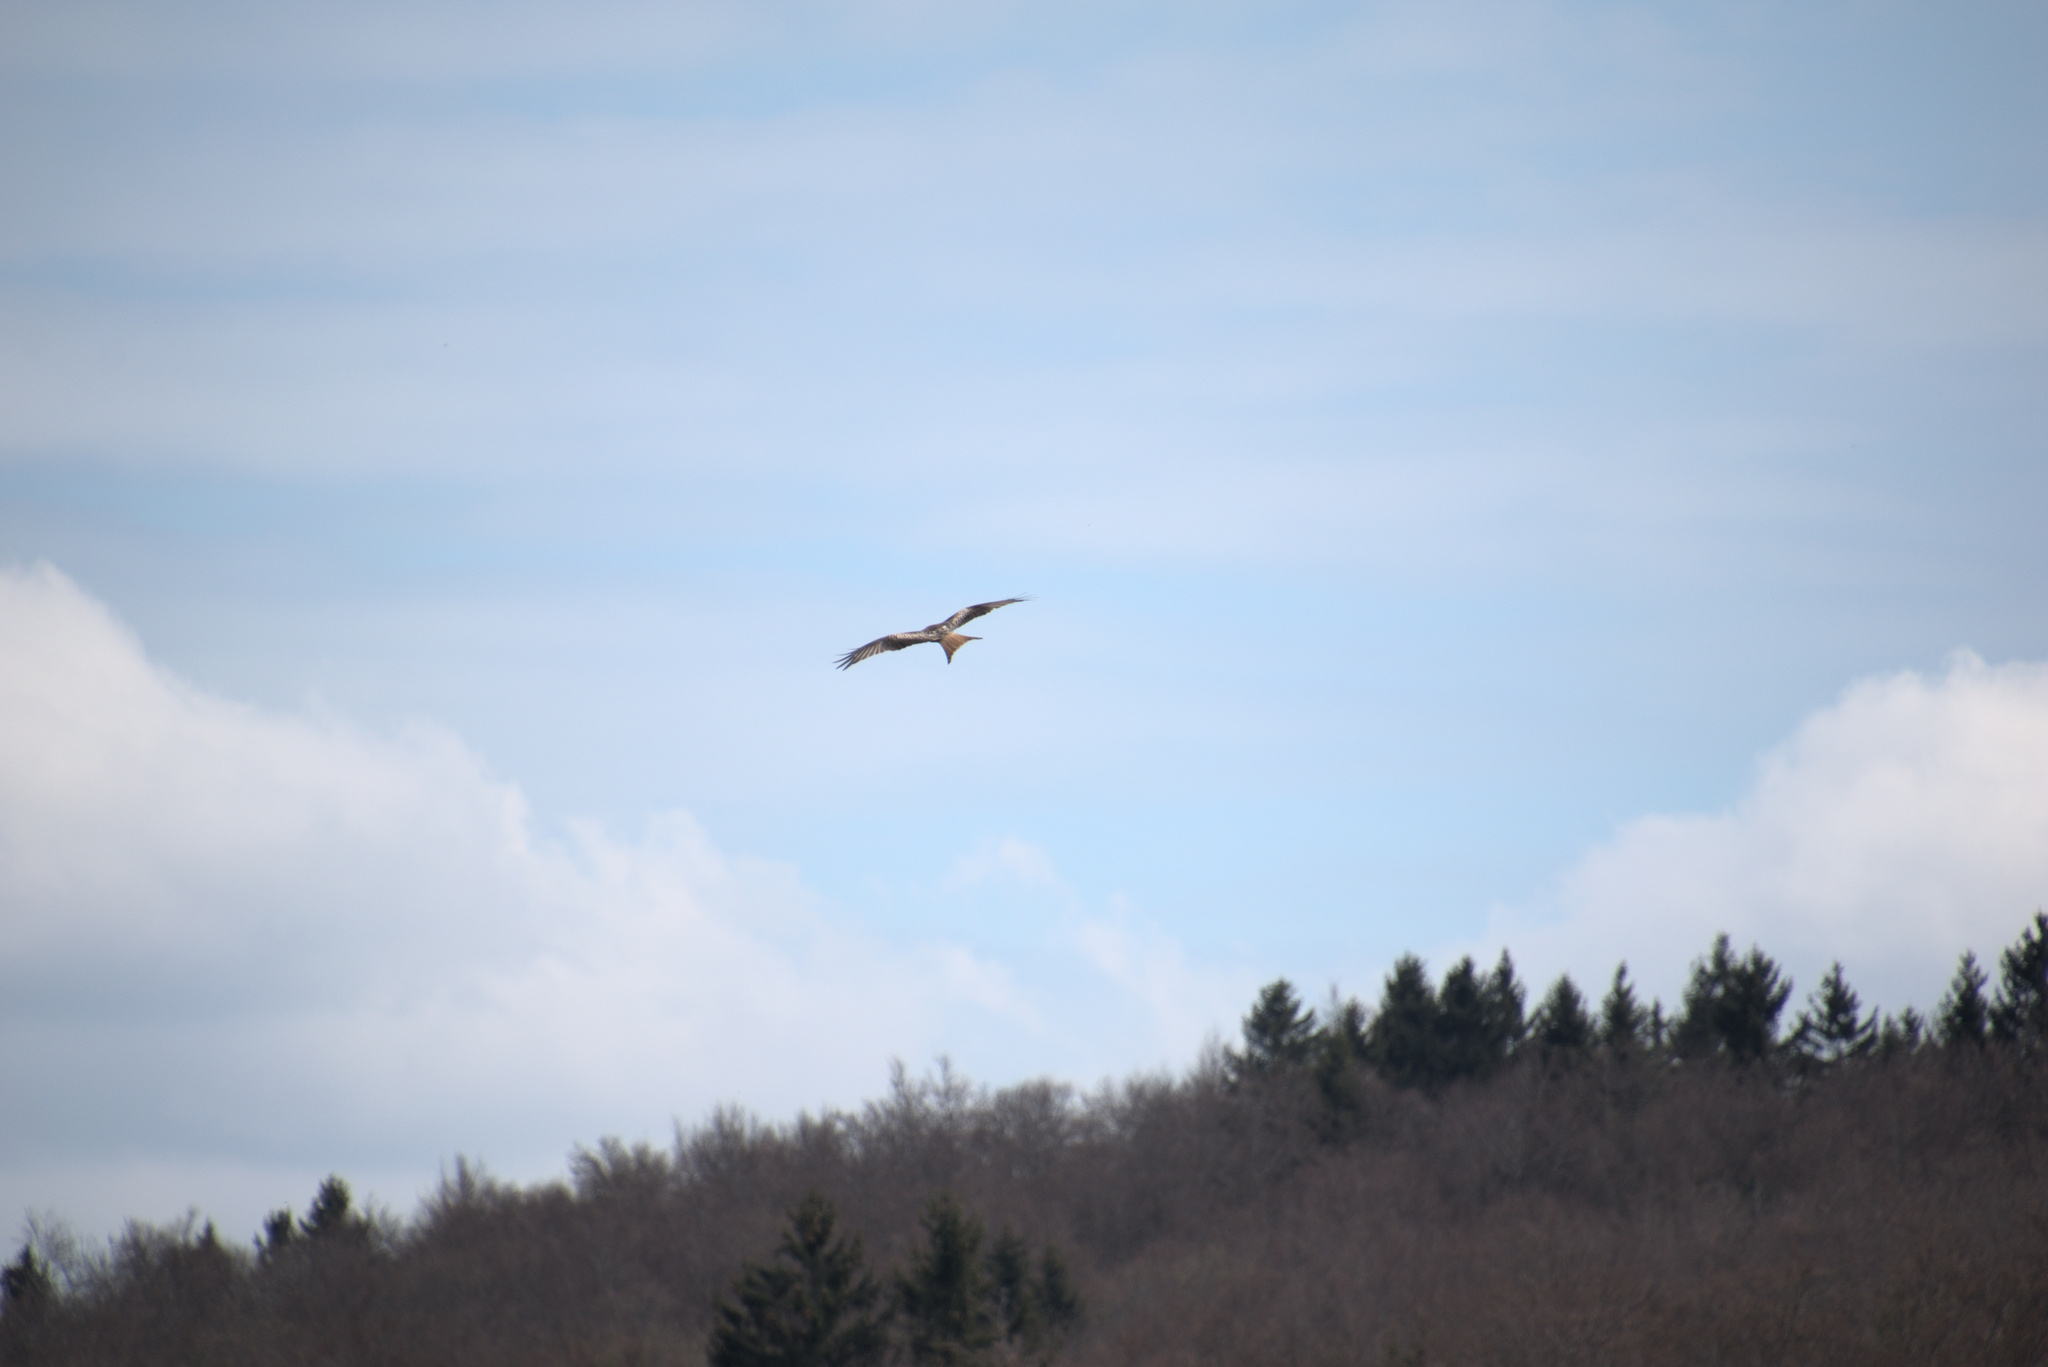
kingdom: Animalia
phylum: Chordata
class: Aves
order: Accipitriformes
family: Accipitridae
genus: Milvus
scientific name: Milvus milvus
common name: Red kite
